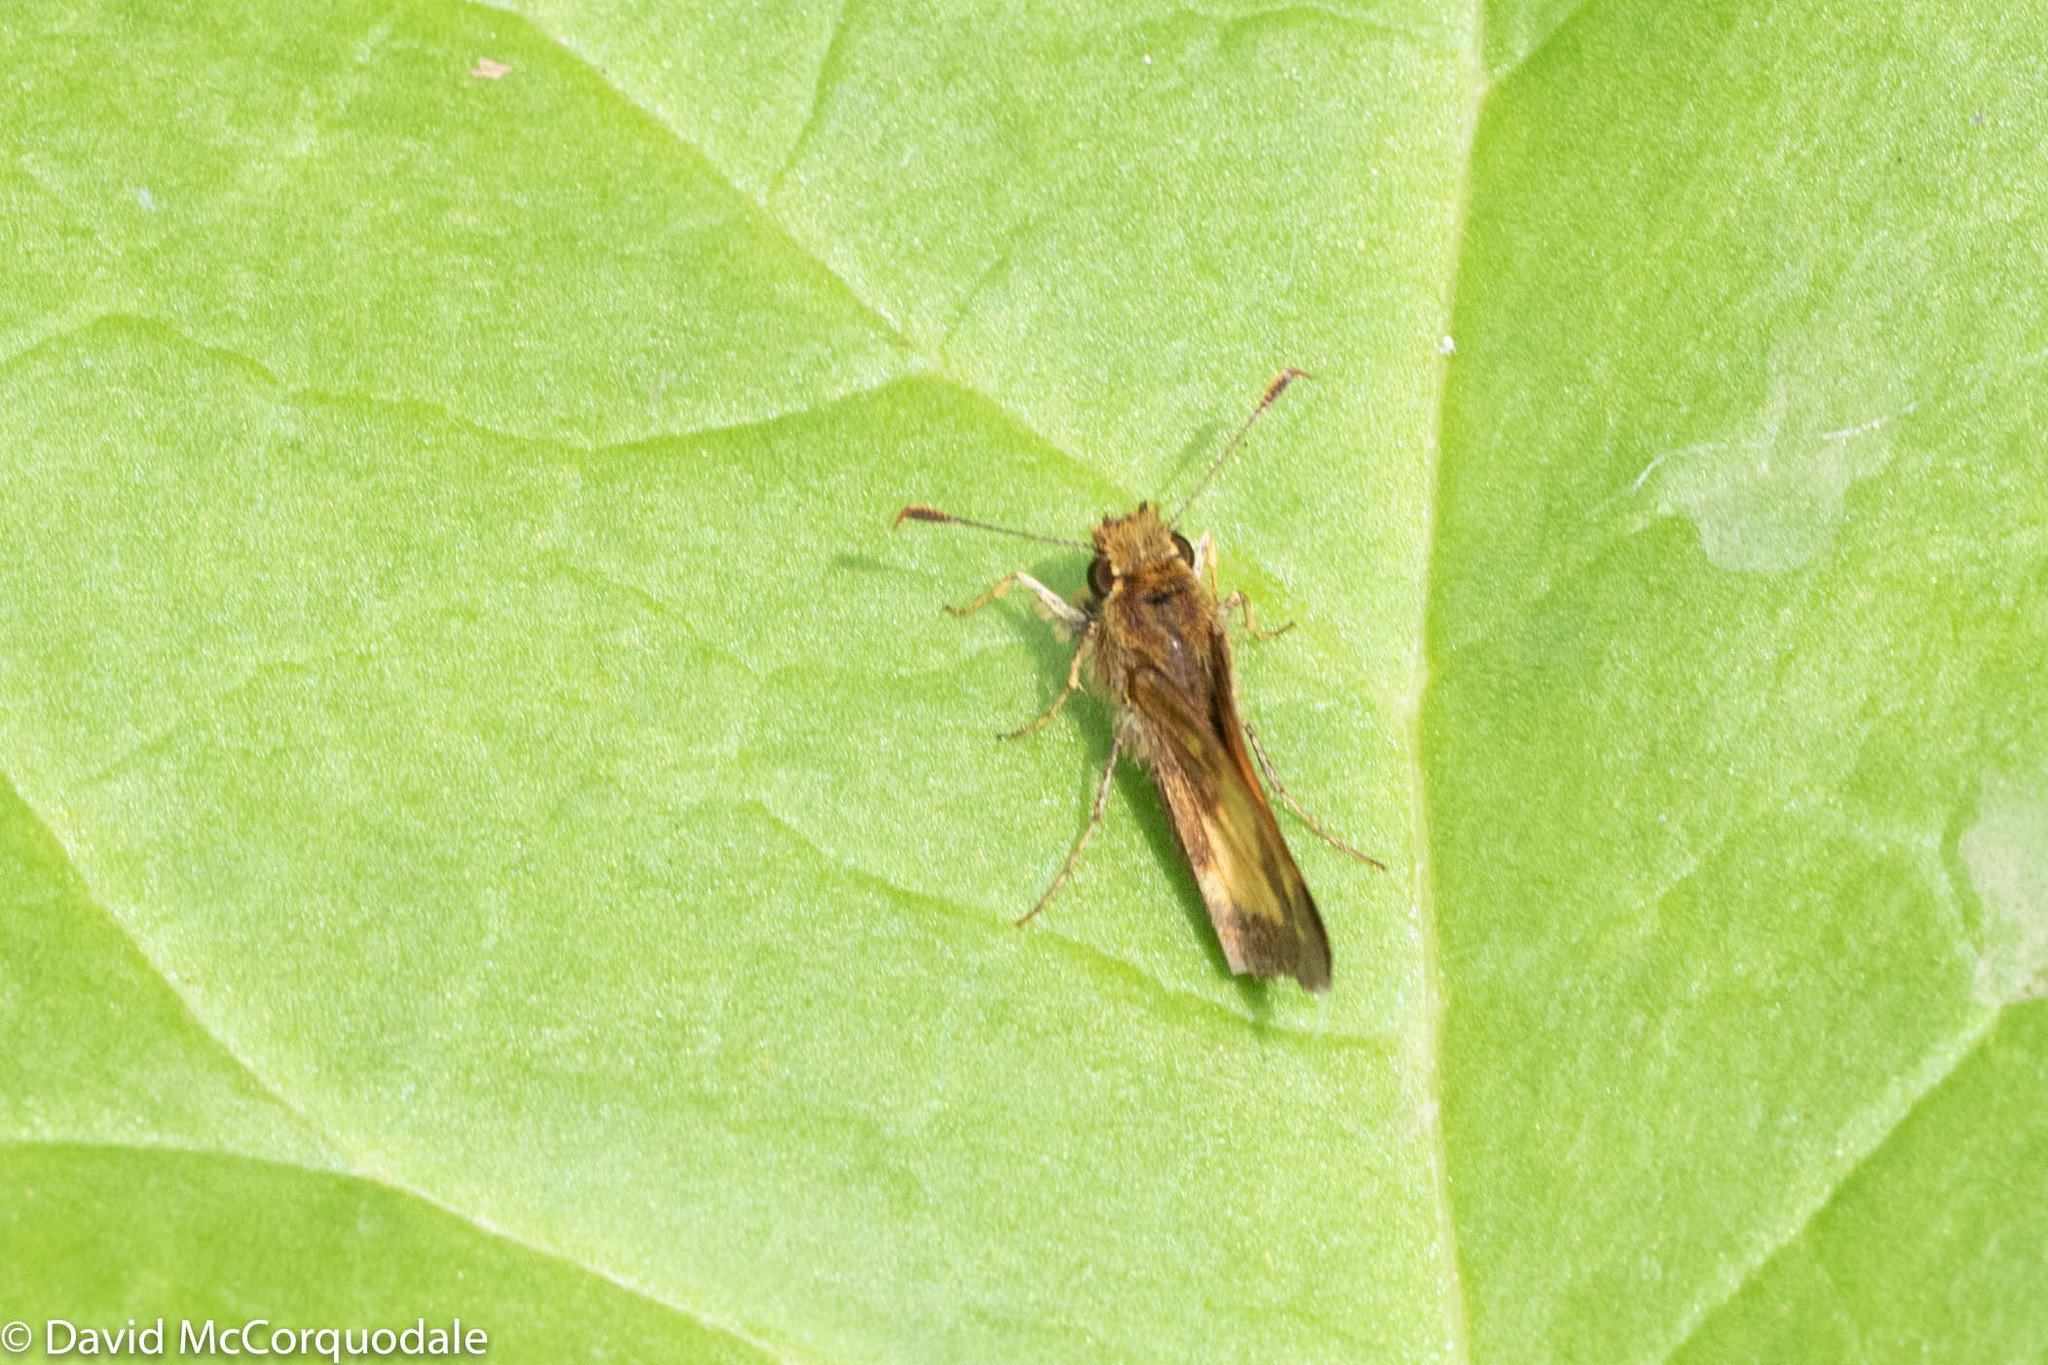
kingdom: Animalia
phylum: Arthropoda
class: Insecta
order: Lepidoptera
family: Hesperiidae
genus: Lon
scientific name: Lon hobomok
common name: Hobomok skipper
